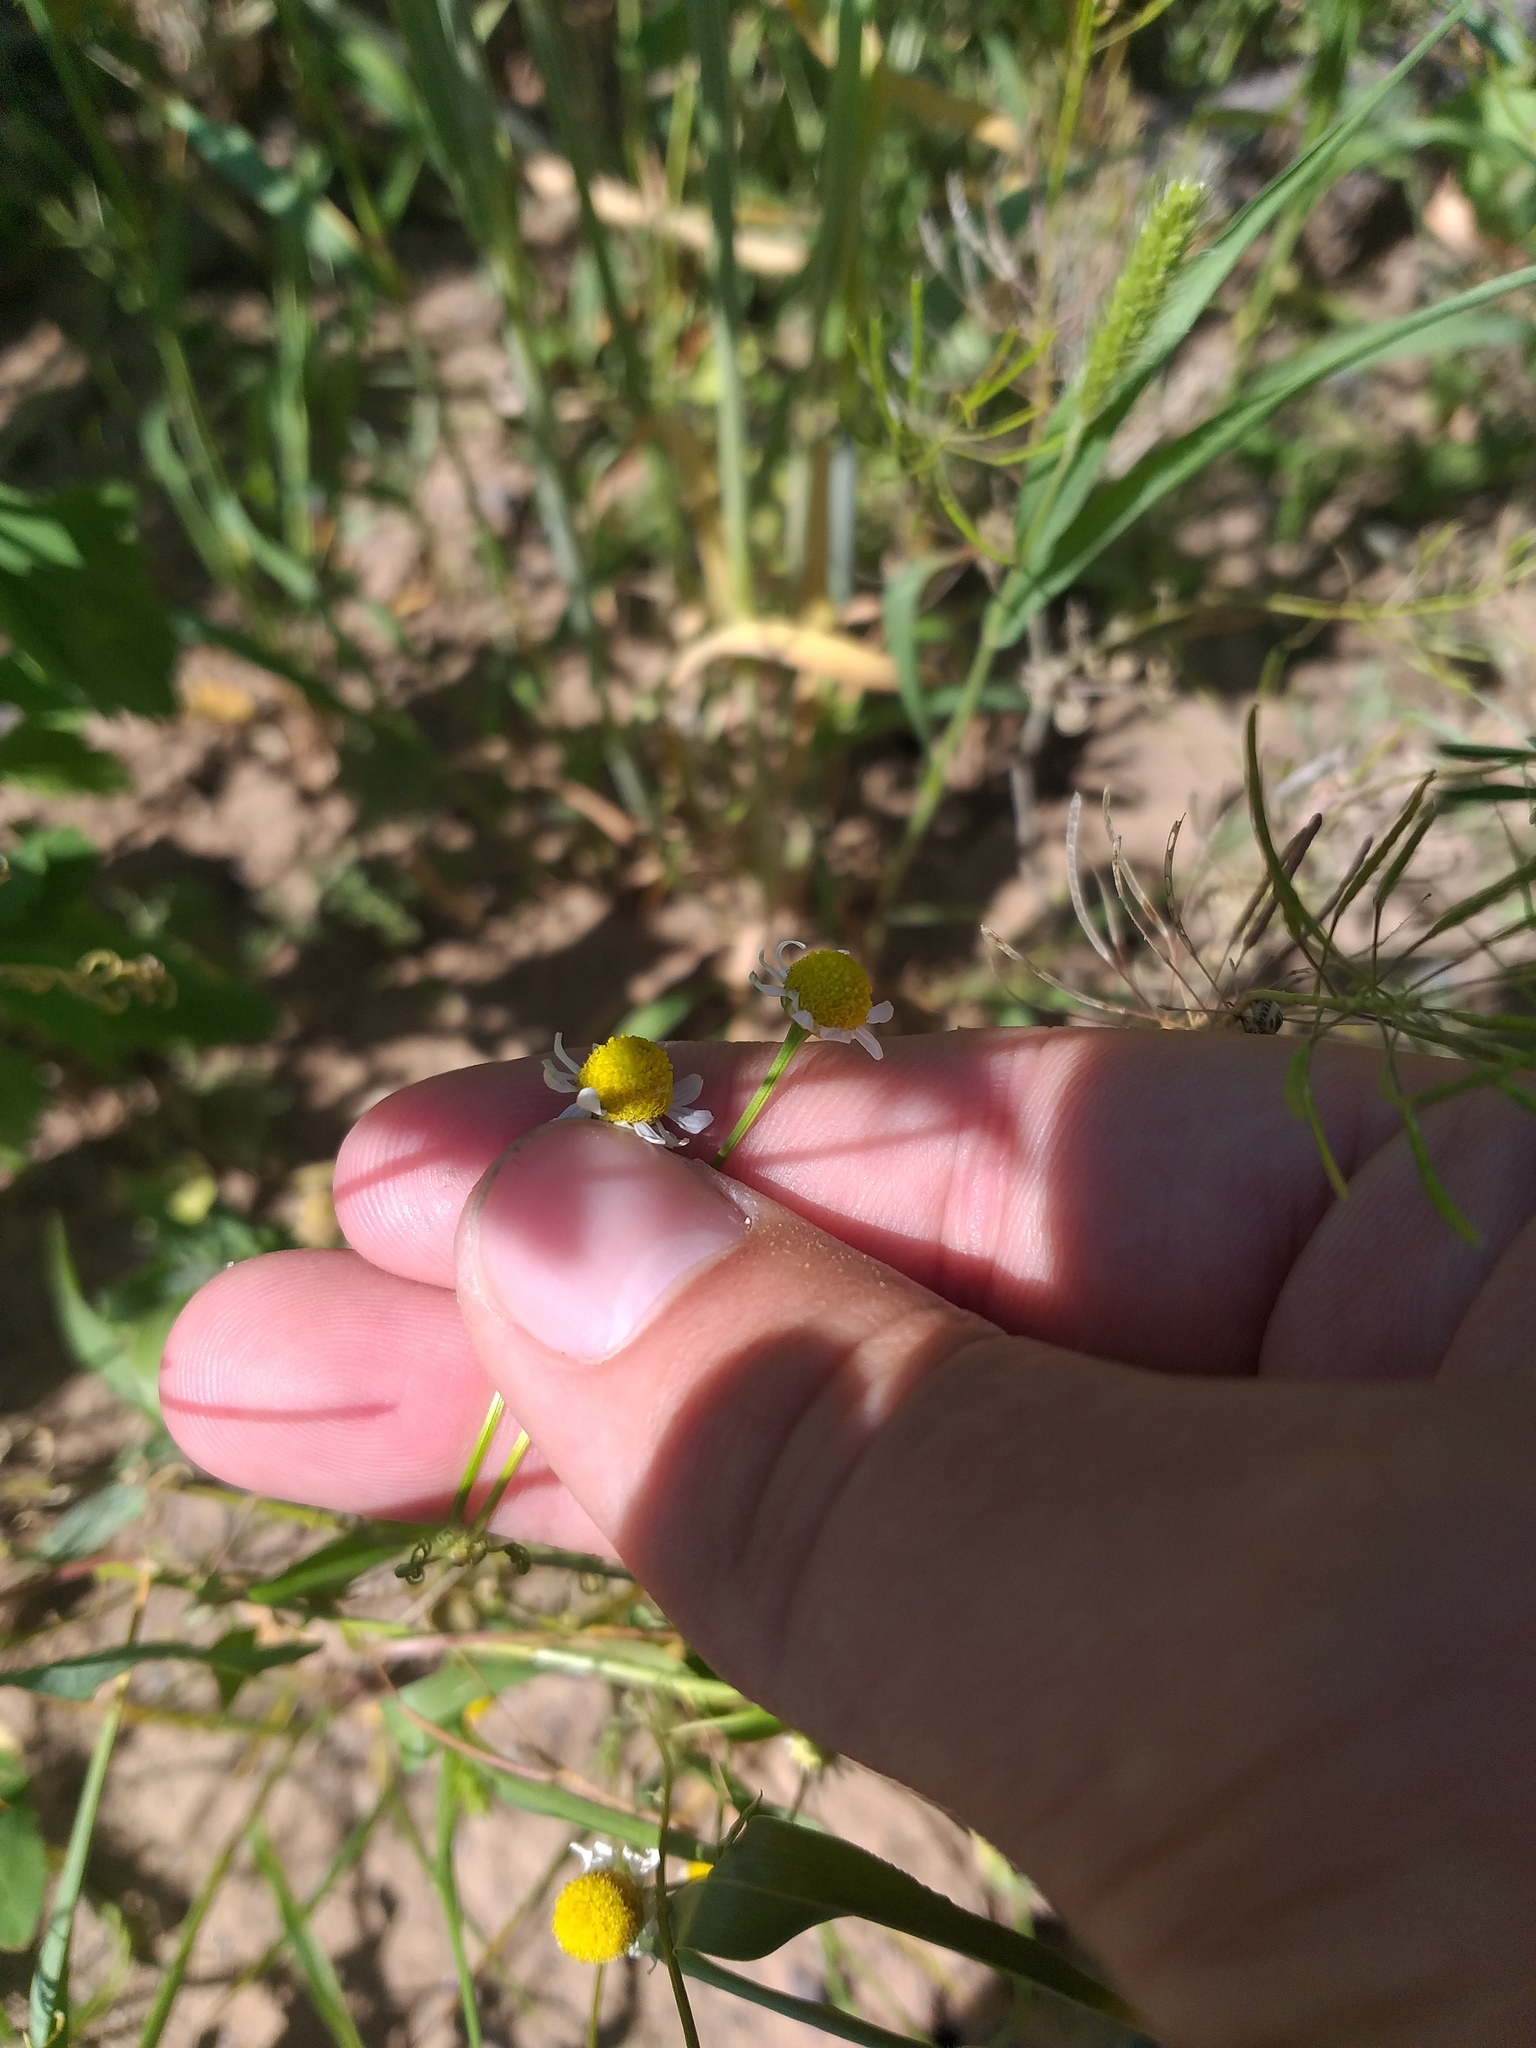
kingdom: Plantae
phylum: Tracheophyta
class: Magnoliopsida
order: Asterales
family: Asteraceae
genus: Matricaria
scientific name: Matricaria chamomilla
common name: Scented mayweed
